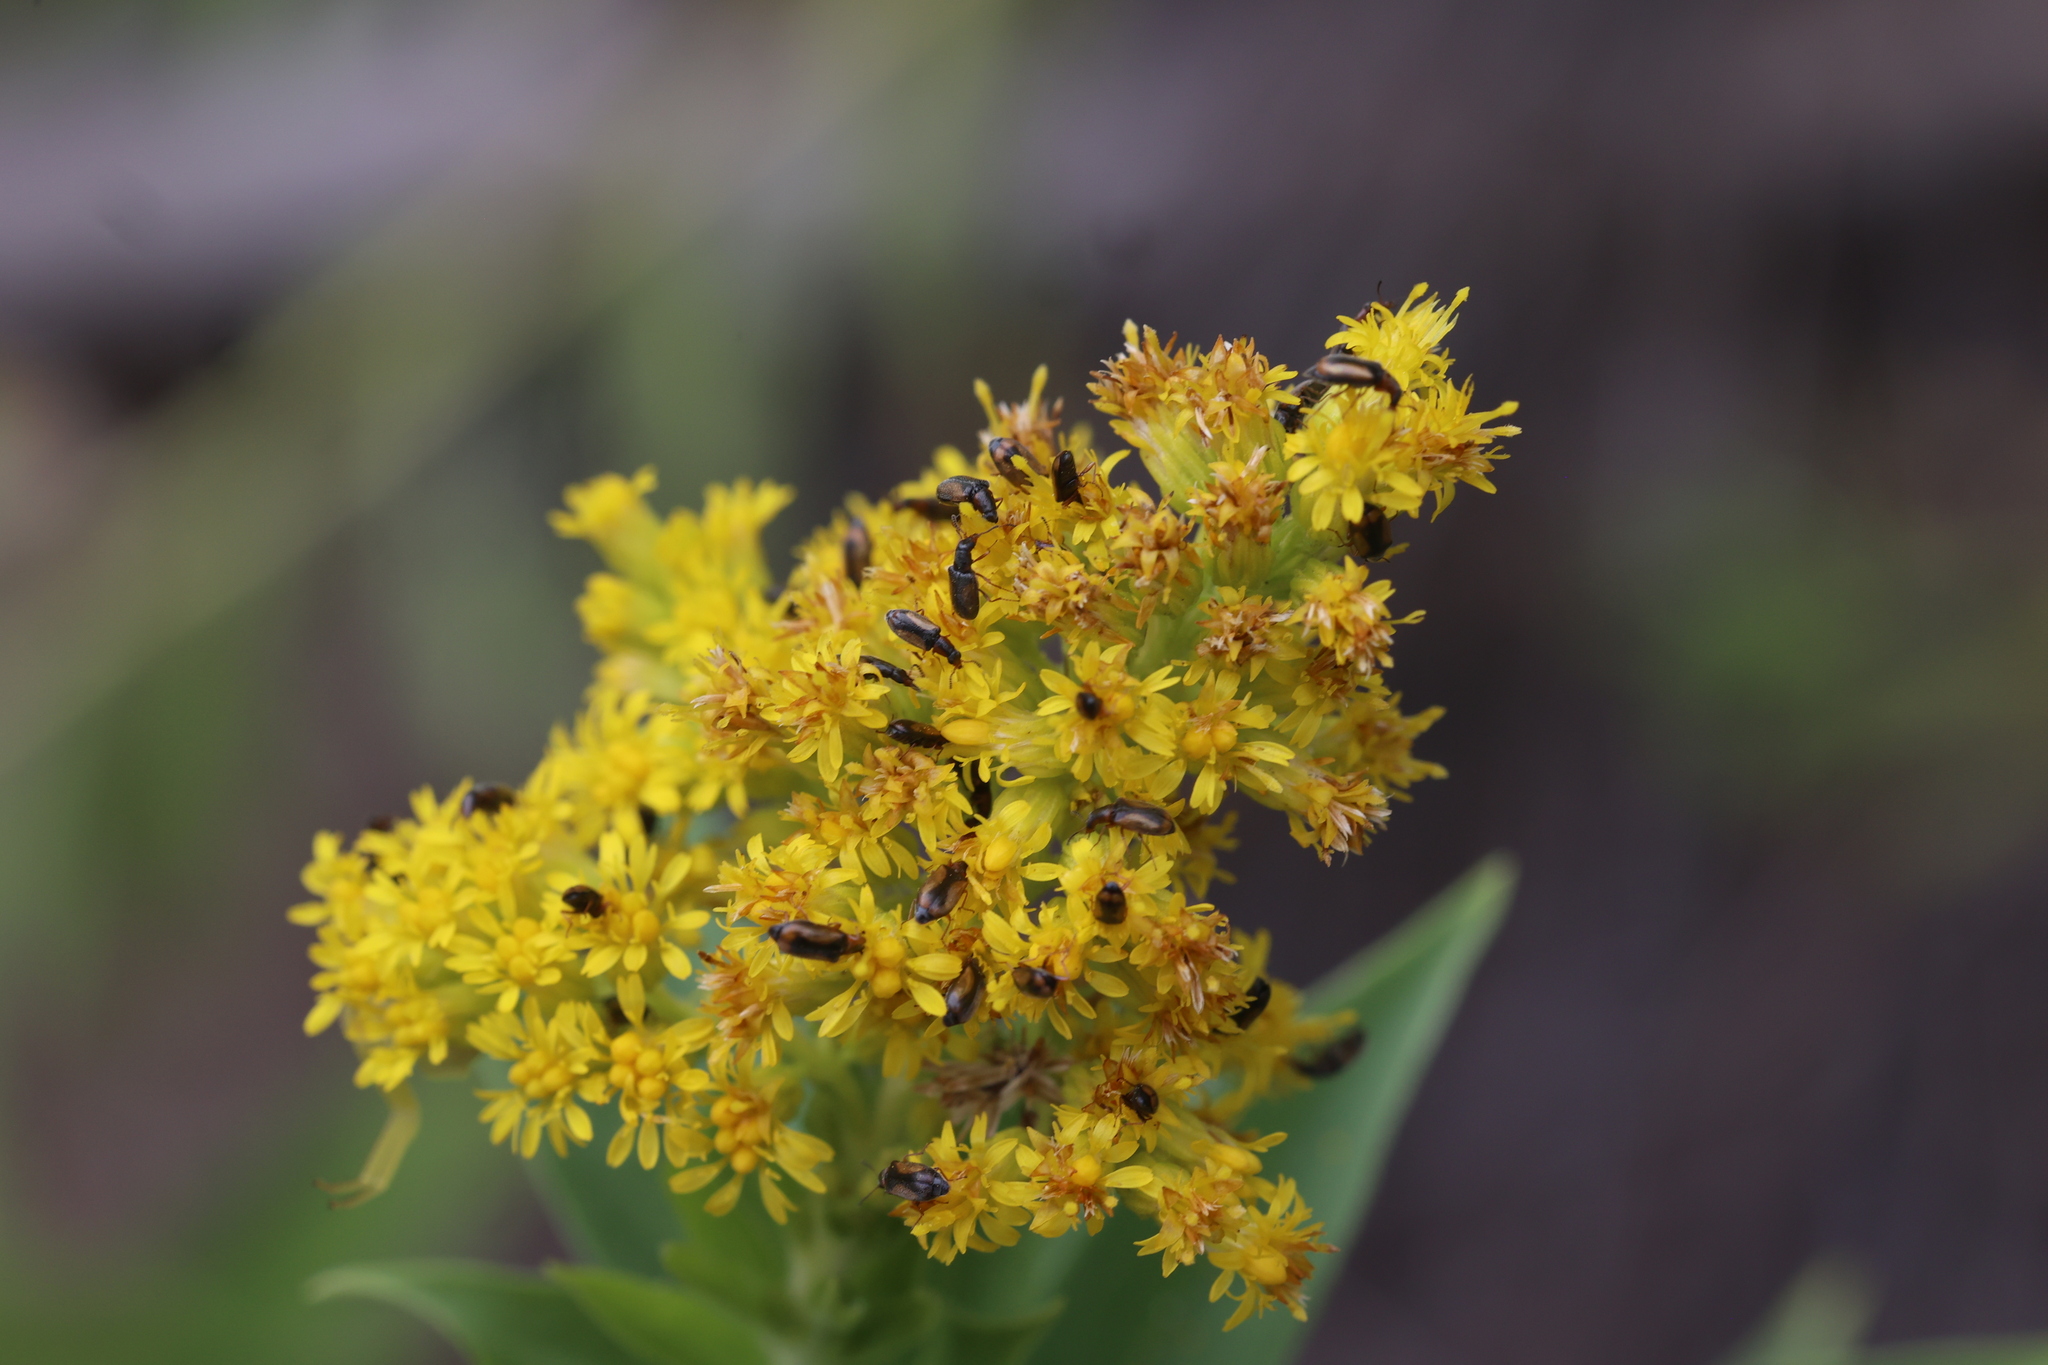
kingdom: Plantae
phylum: Tracheophyta
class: Magnoliopsida
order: Asterales
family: Asteraceae
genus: Solidago
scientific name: Solidago gigantea
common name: Giant goldenrod
